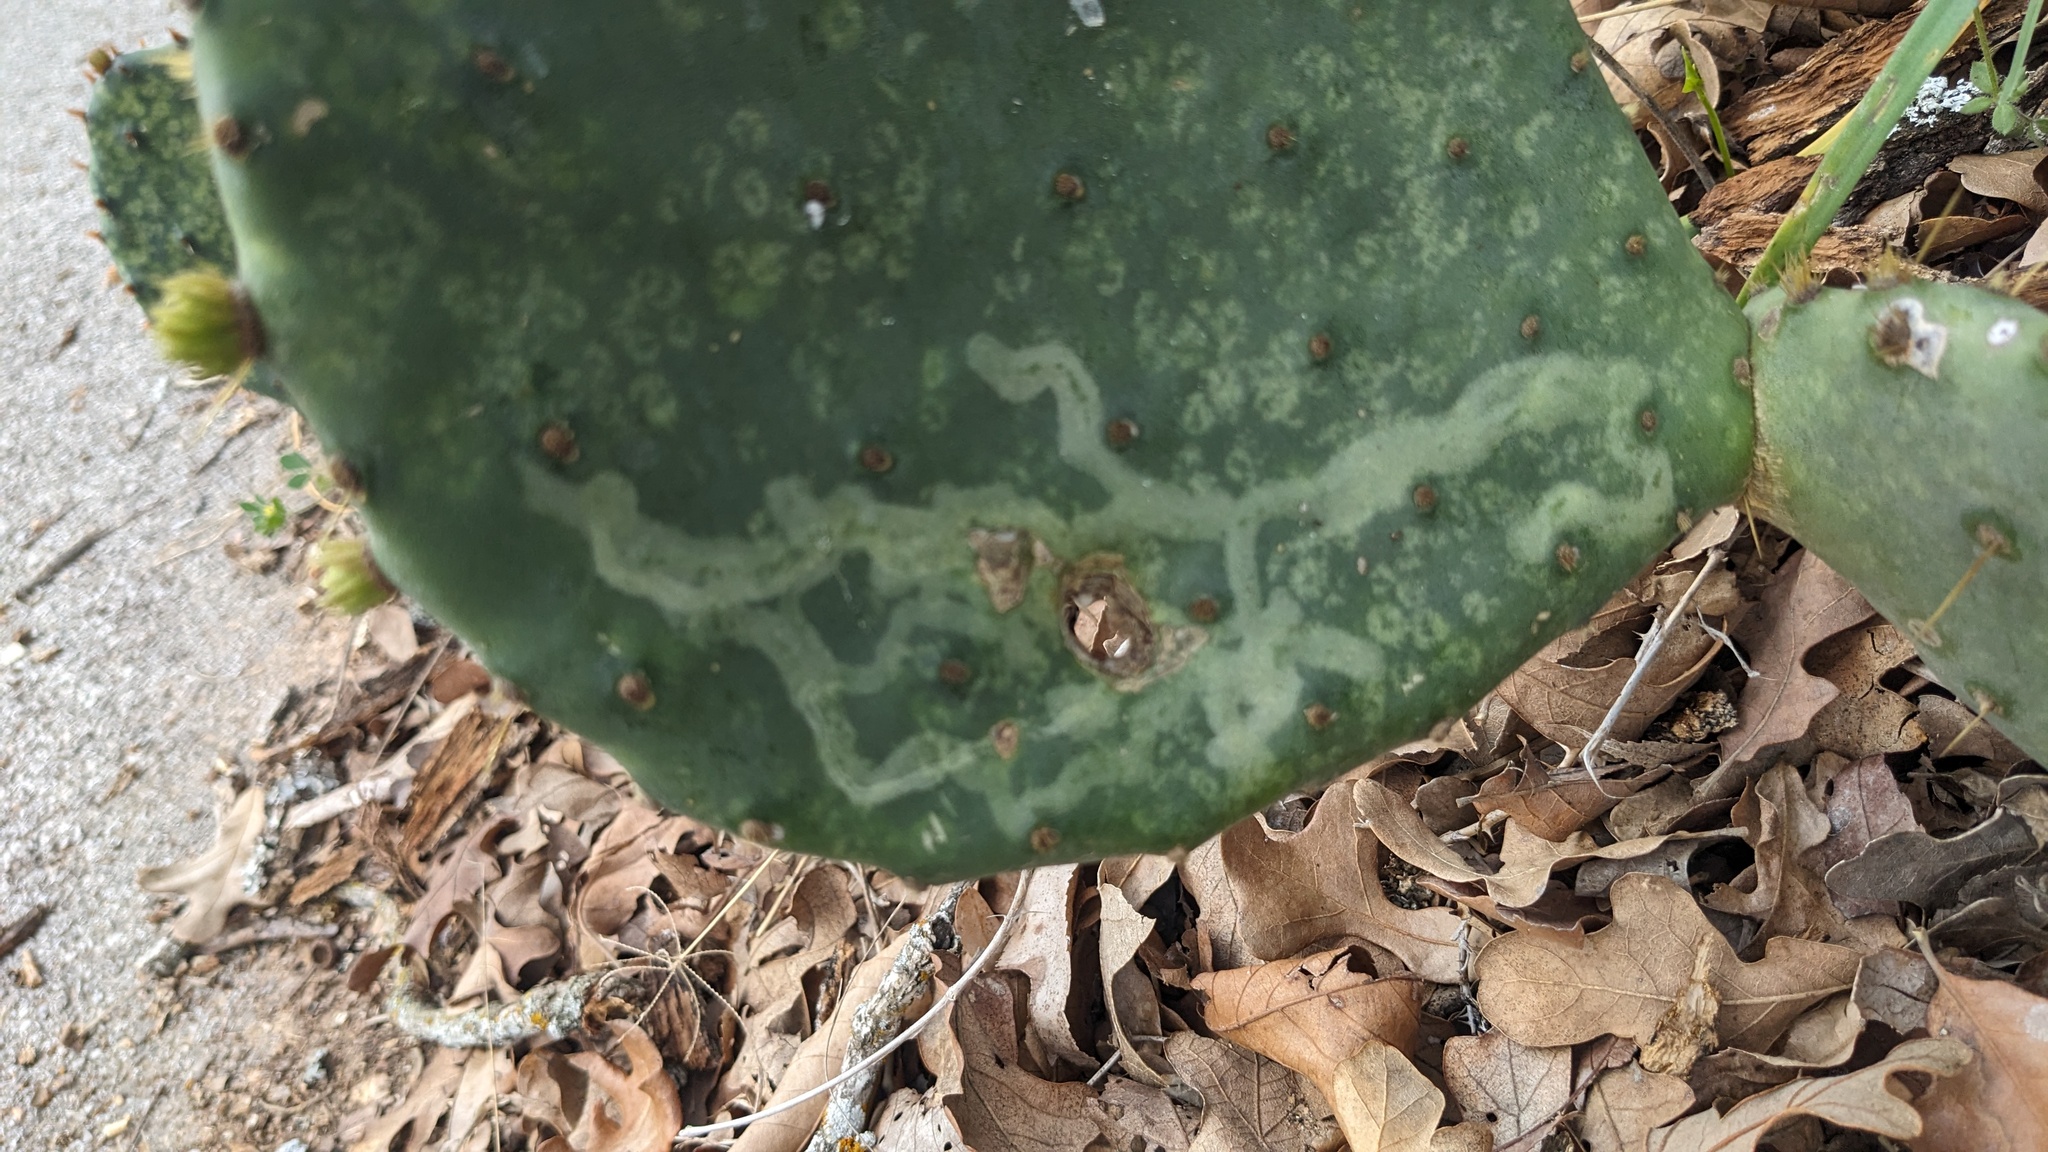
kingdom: Animalia
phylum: Arthropoda
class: Insecta
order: Lepidoptera
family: Gracillariidae
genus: Marmara
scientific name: Marmara opuntiella
